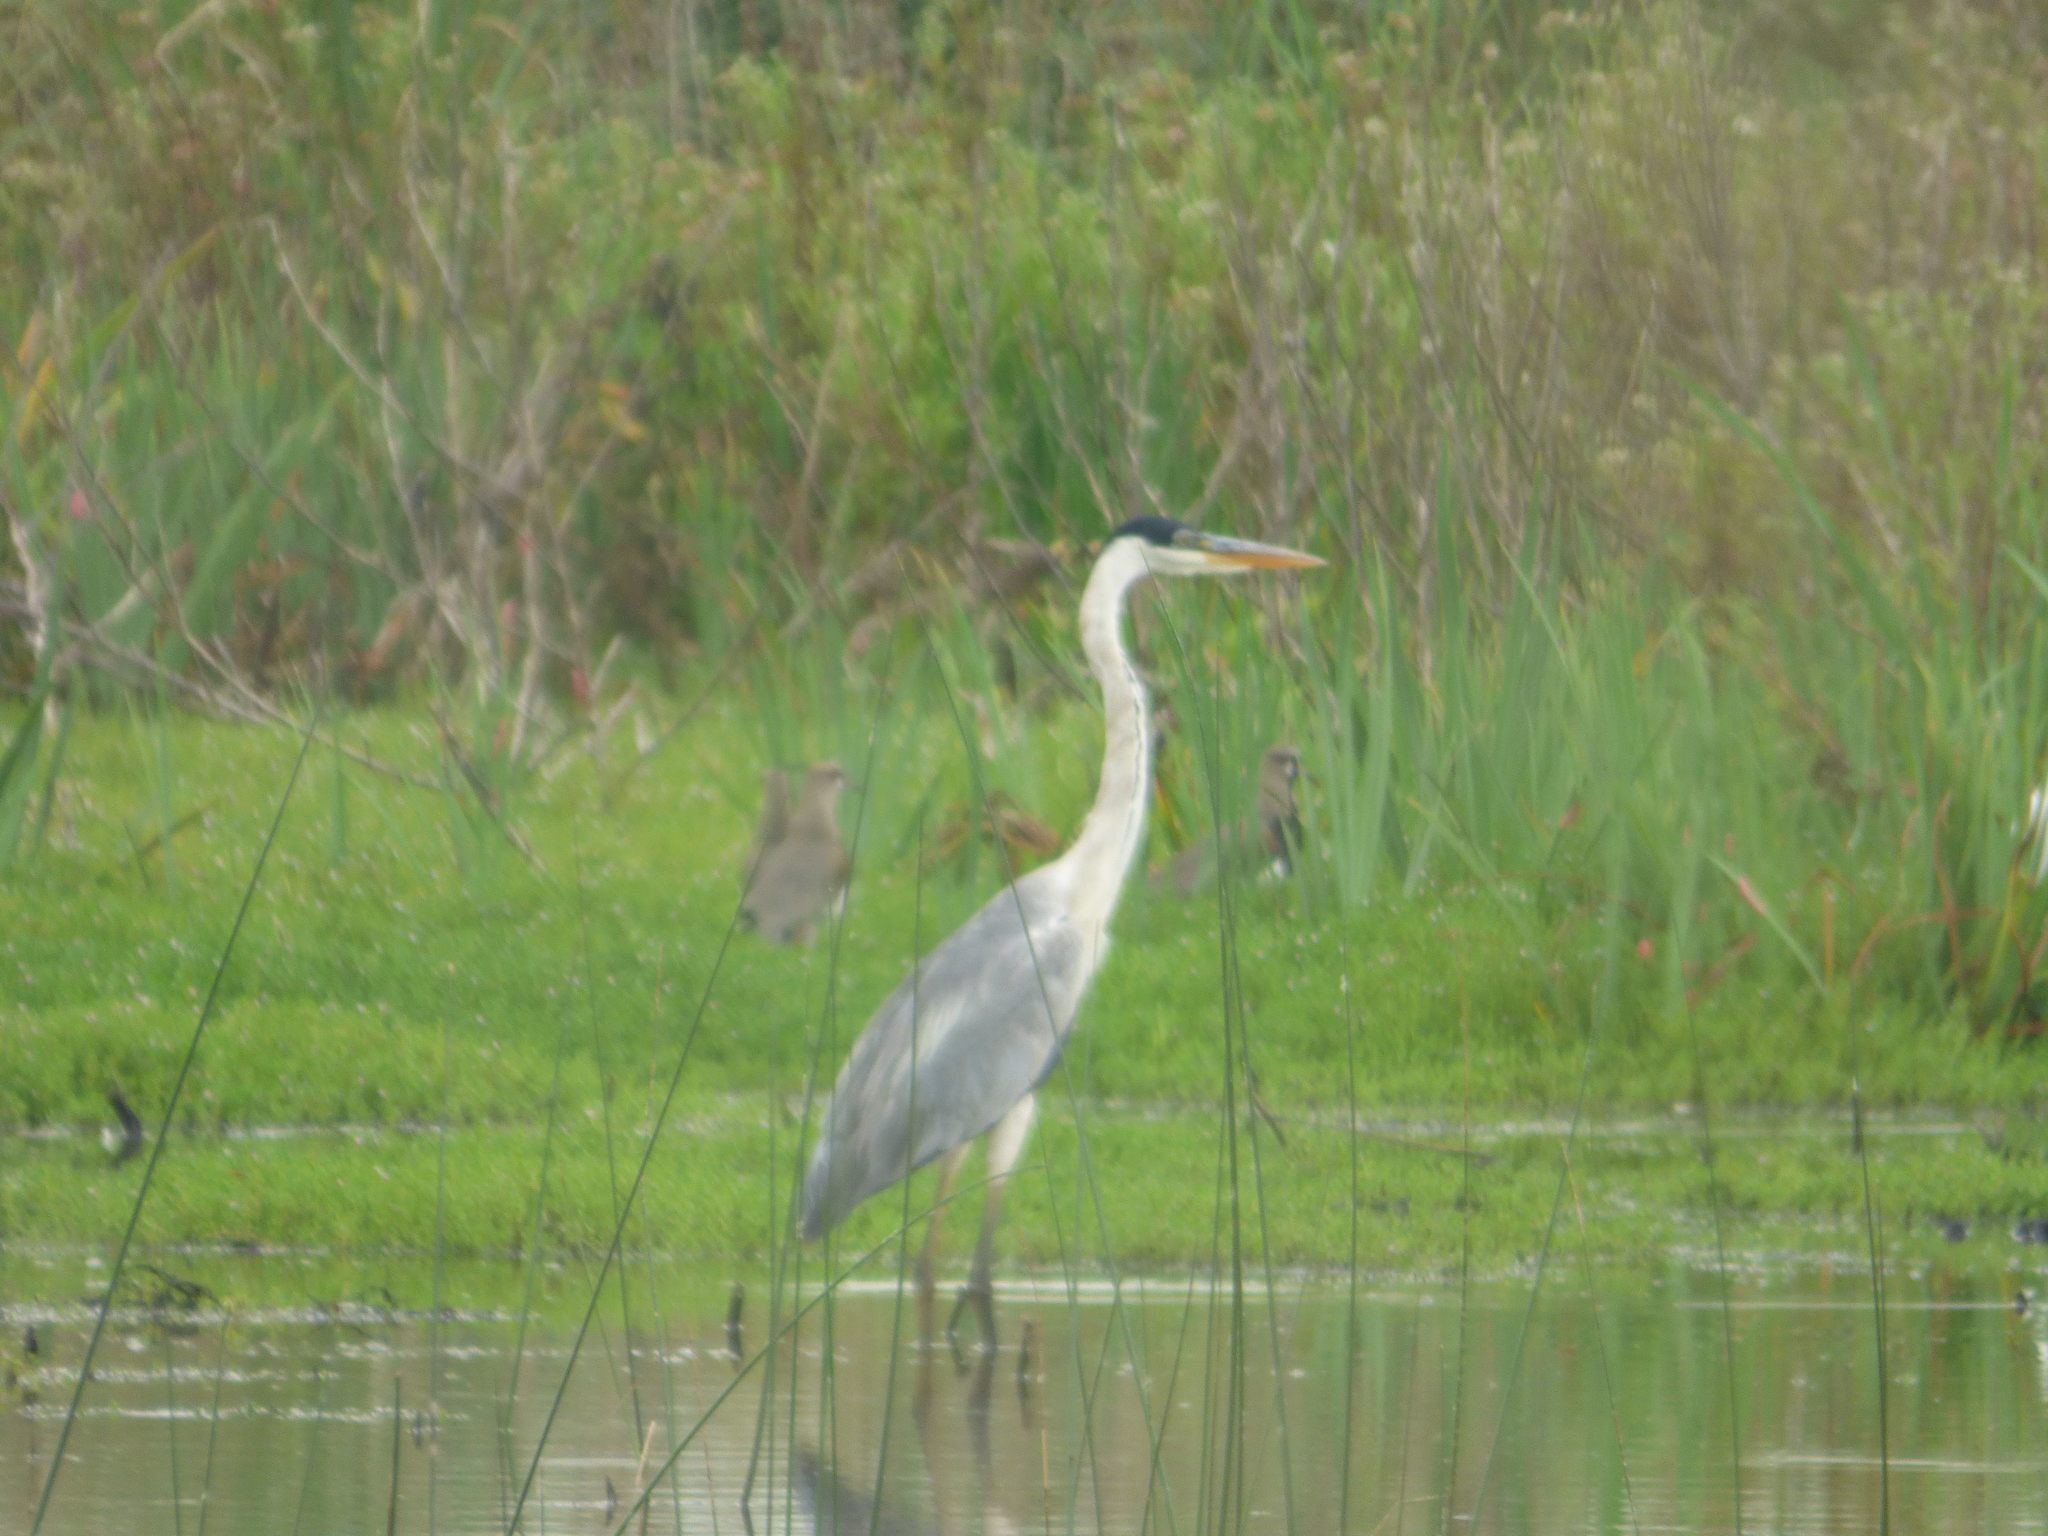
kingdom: Animalia
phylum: Chordata
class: Aves
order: Pelecaniformes
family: Ardeidae
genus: Ardea
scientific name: Ardea cocoi
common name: Cocoi heron
